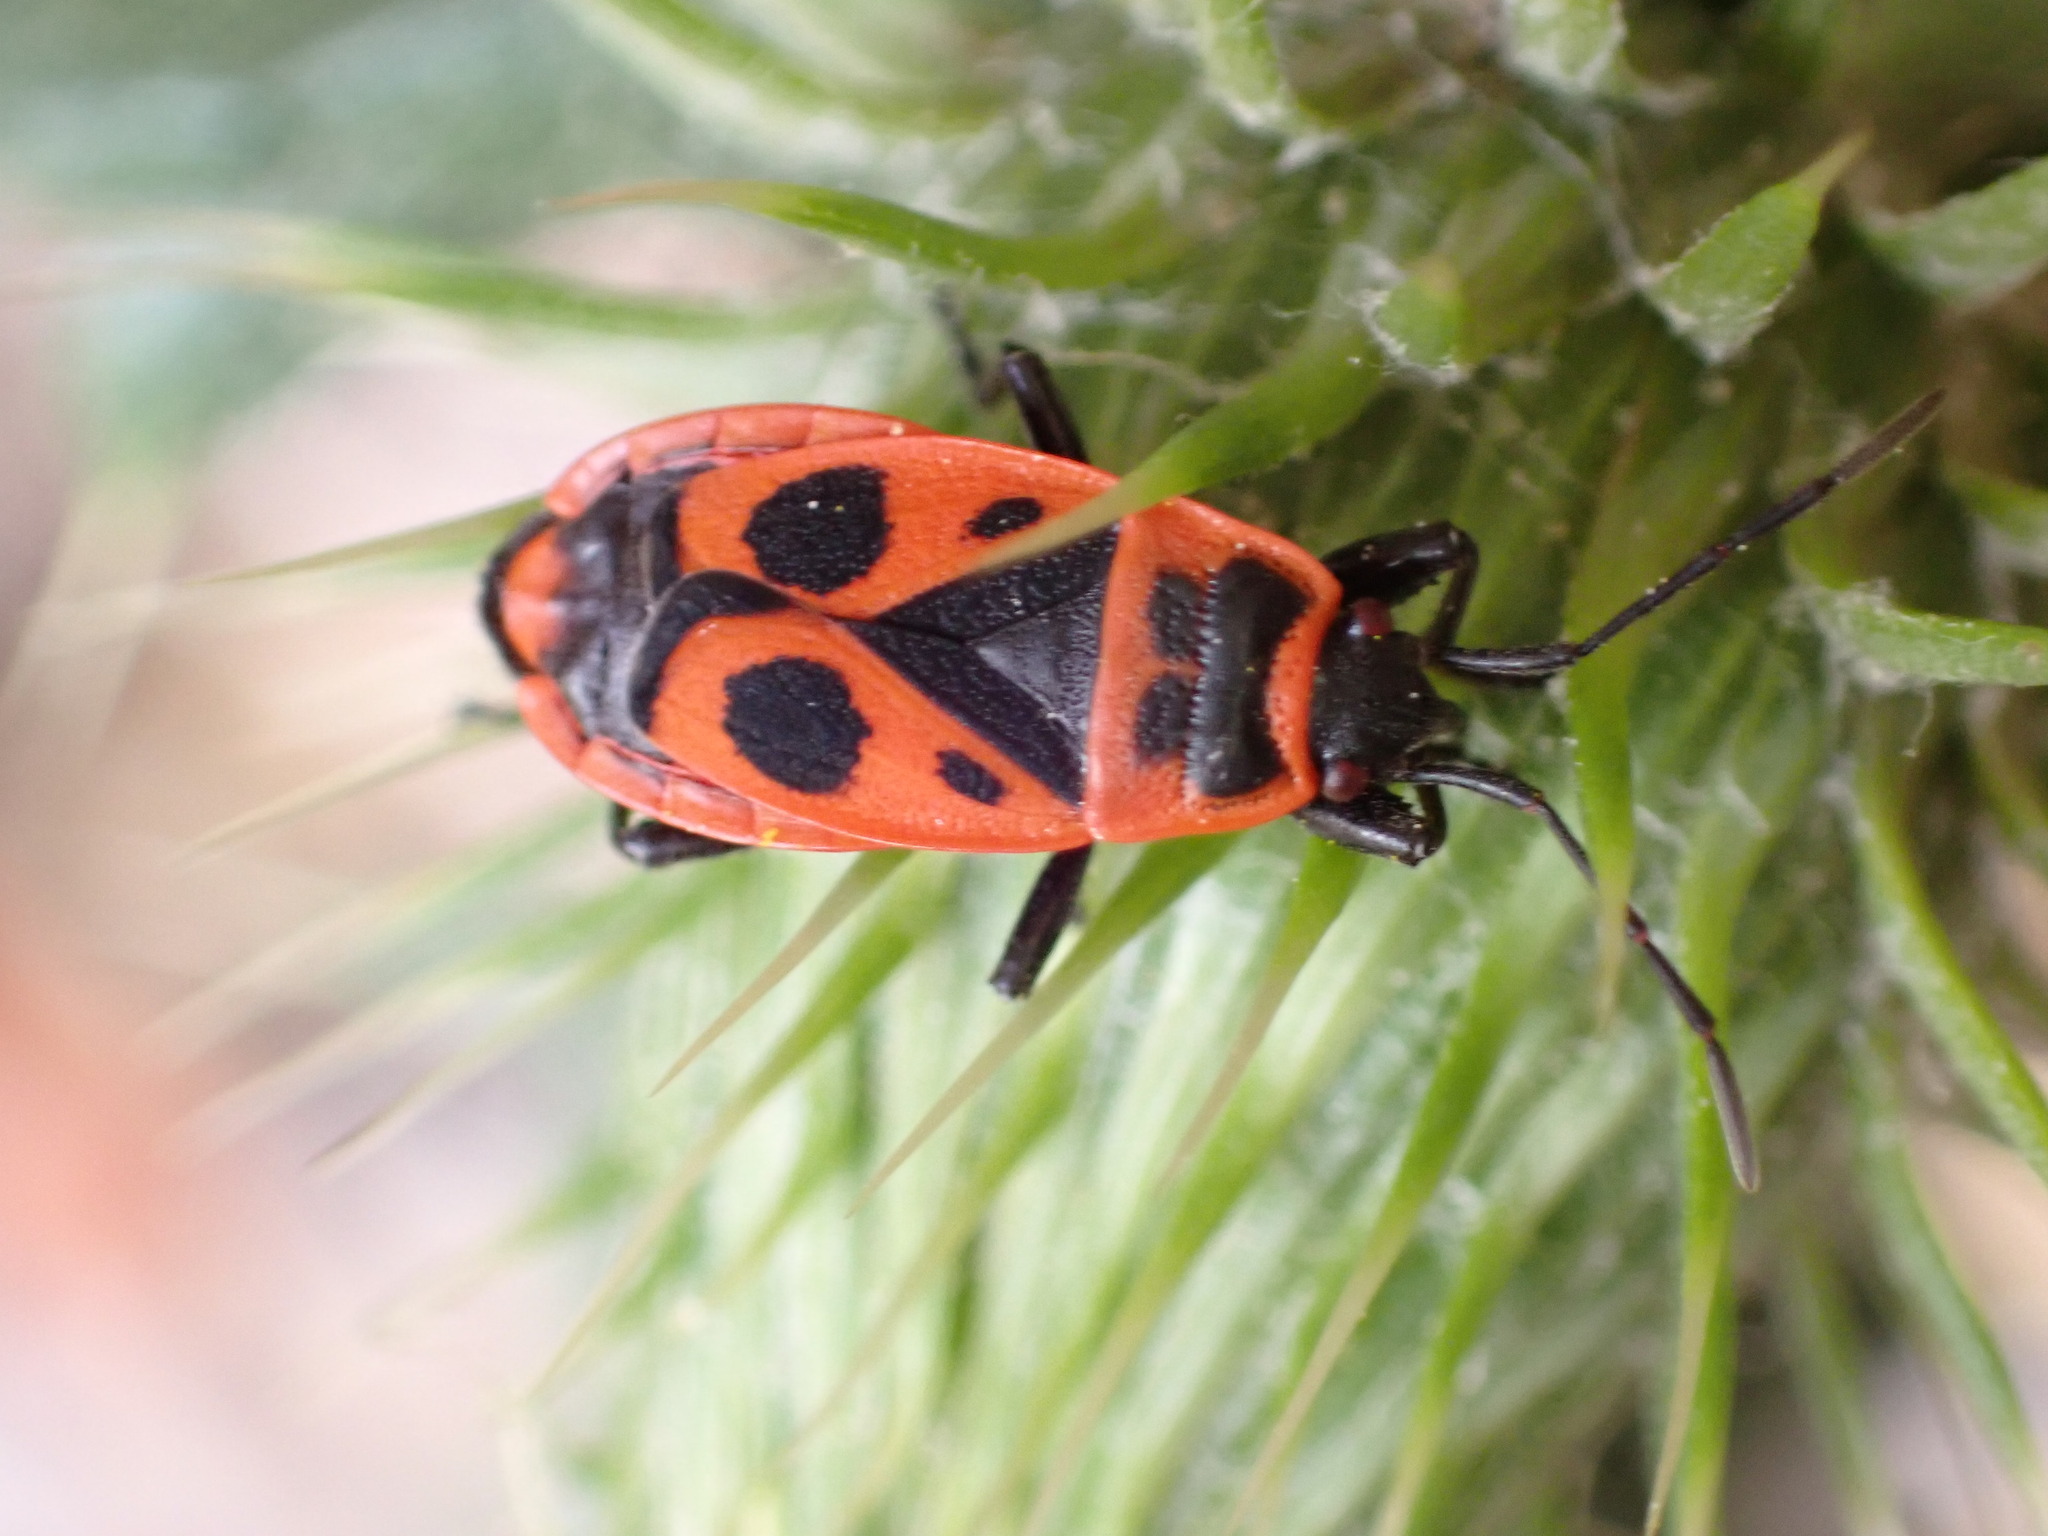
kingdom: Animalia
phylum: Arthropoda
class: Insecta
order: Hemiptera
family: Pyrrhocoridae
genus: Pyrrhocoris
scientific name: Pyrrhocoris apterus
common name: Firebug
